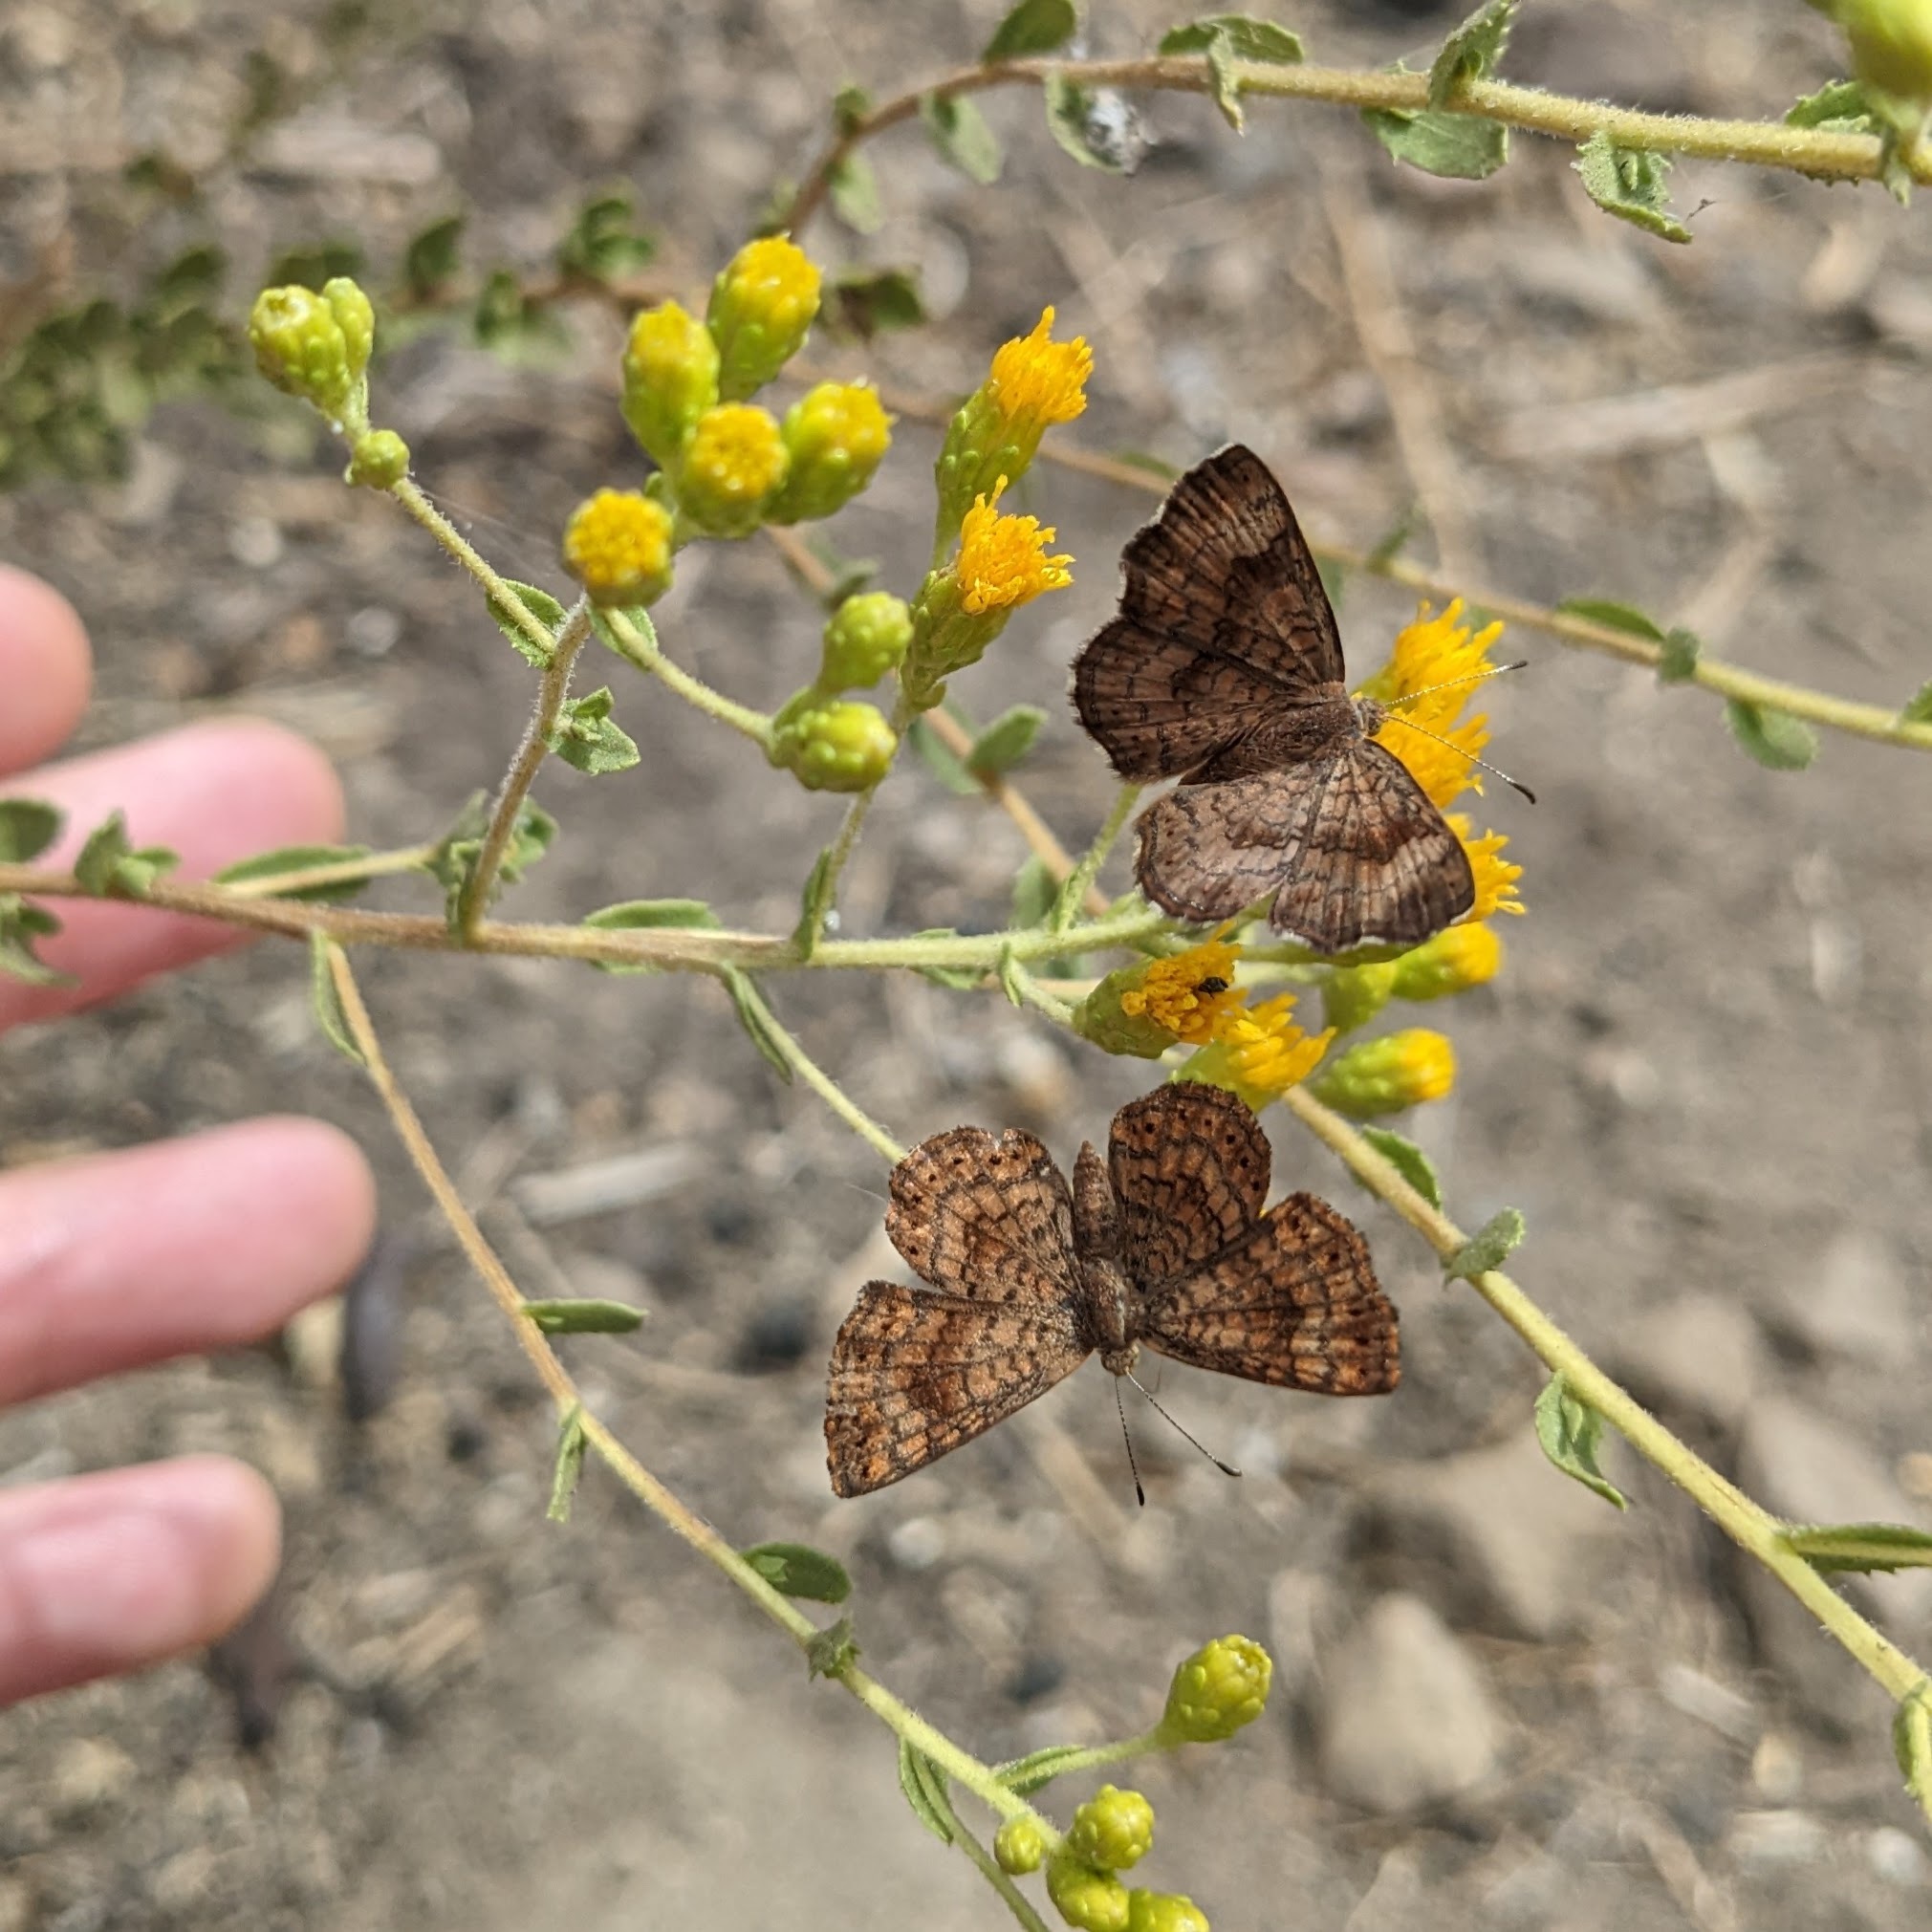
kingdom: Animalia
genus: Calephelis
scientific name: Calephelis nemesis
